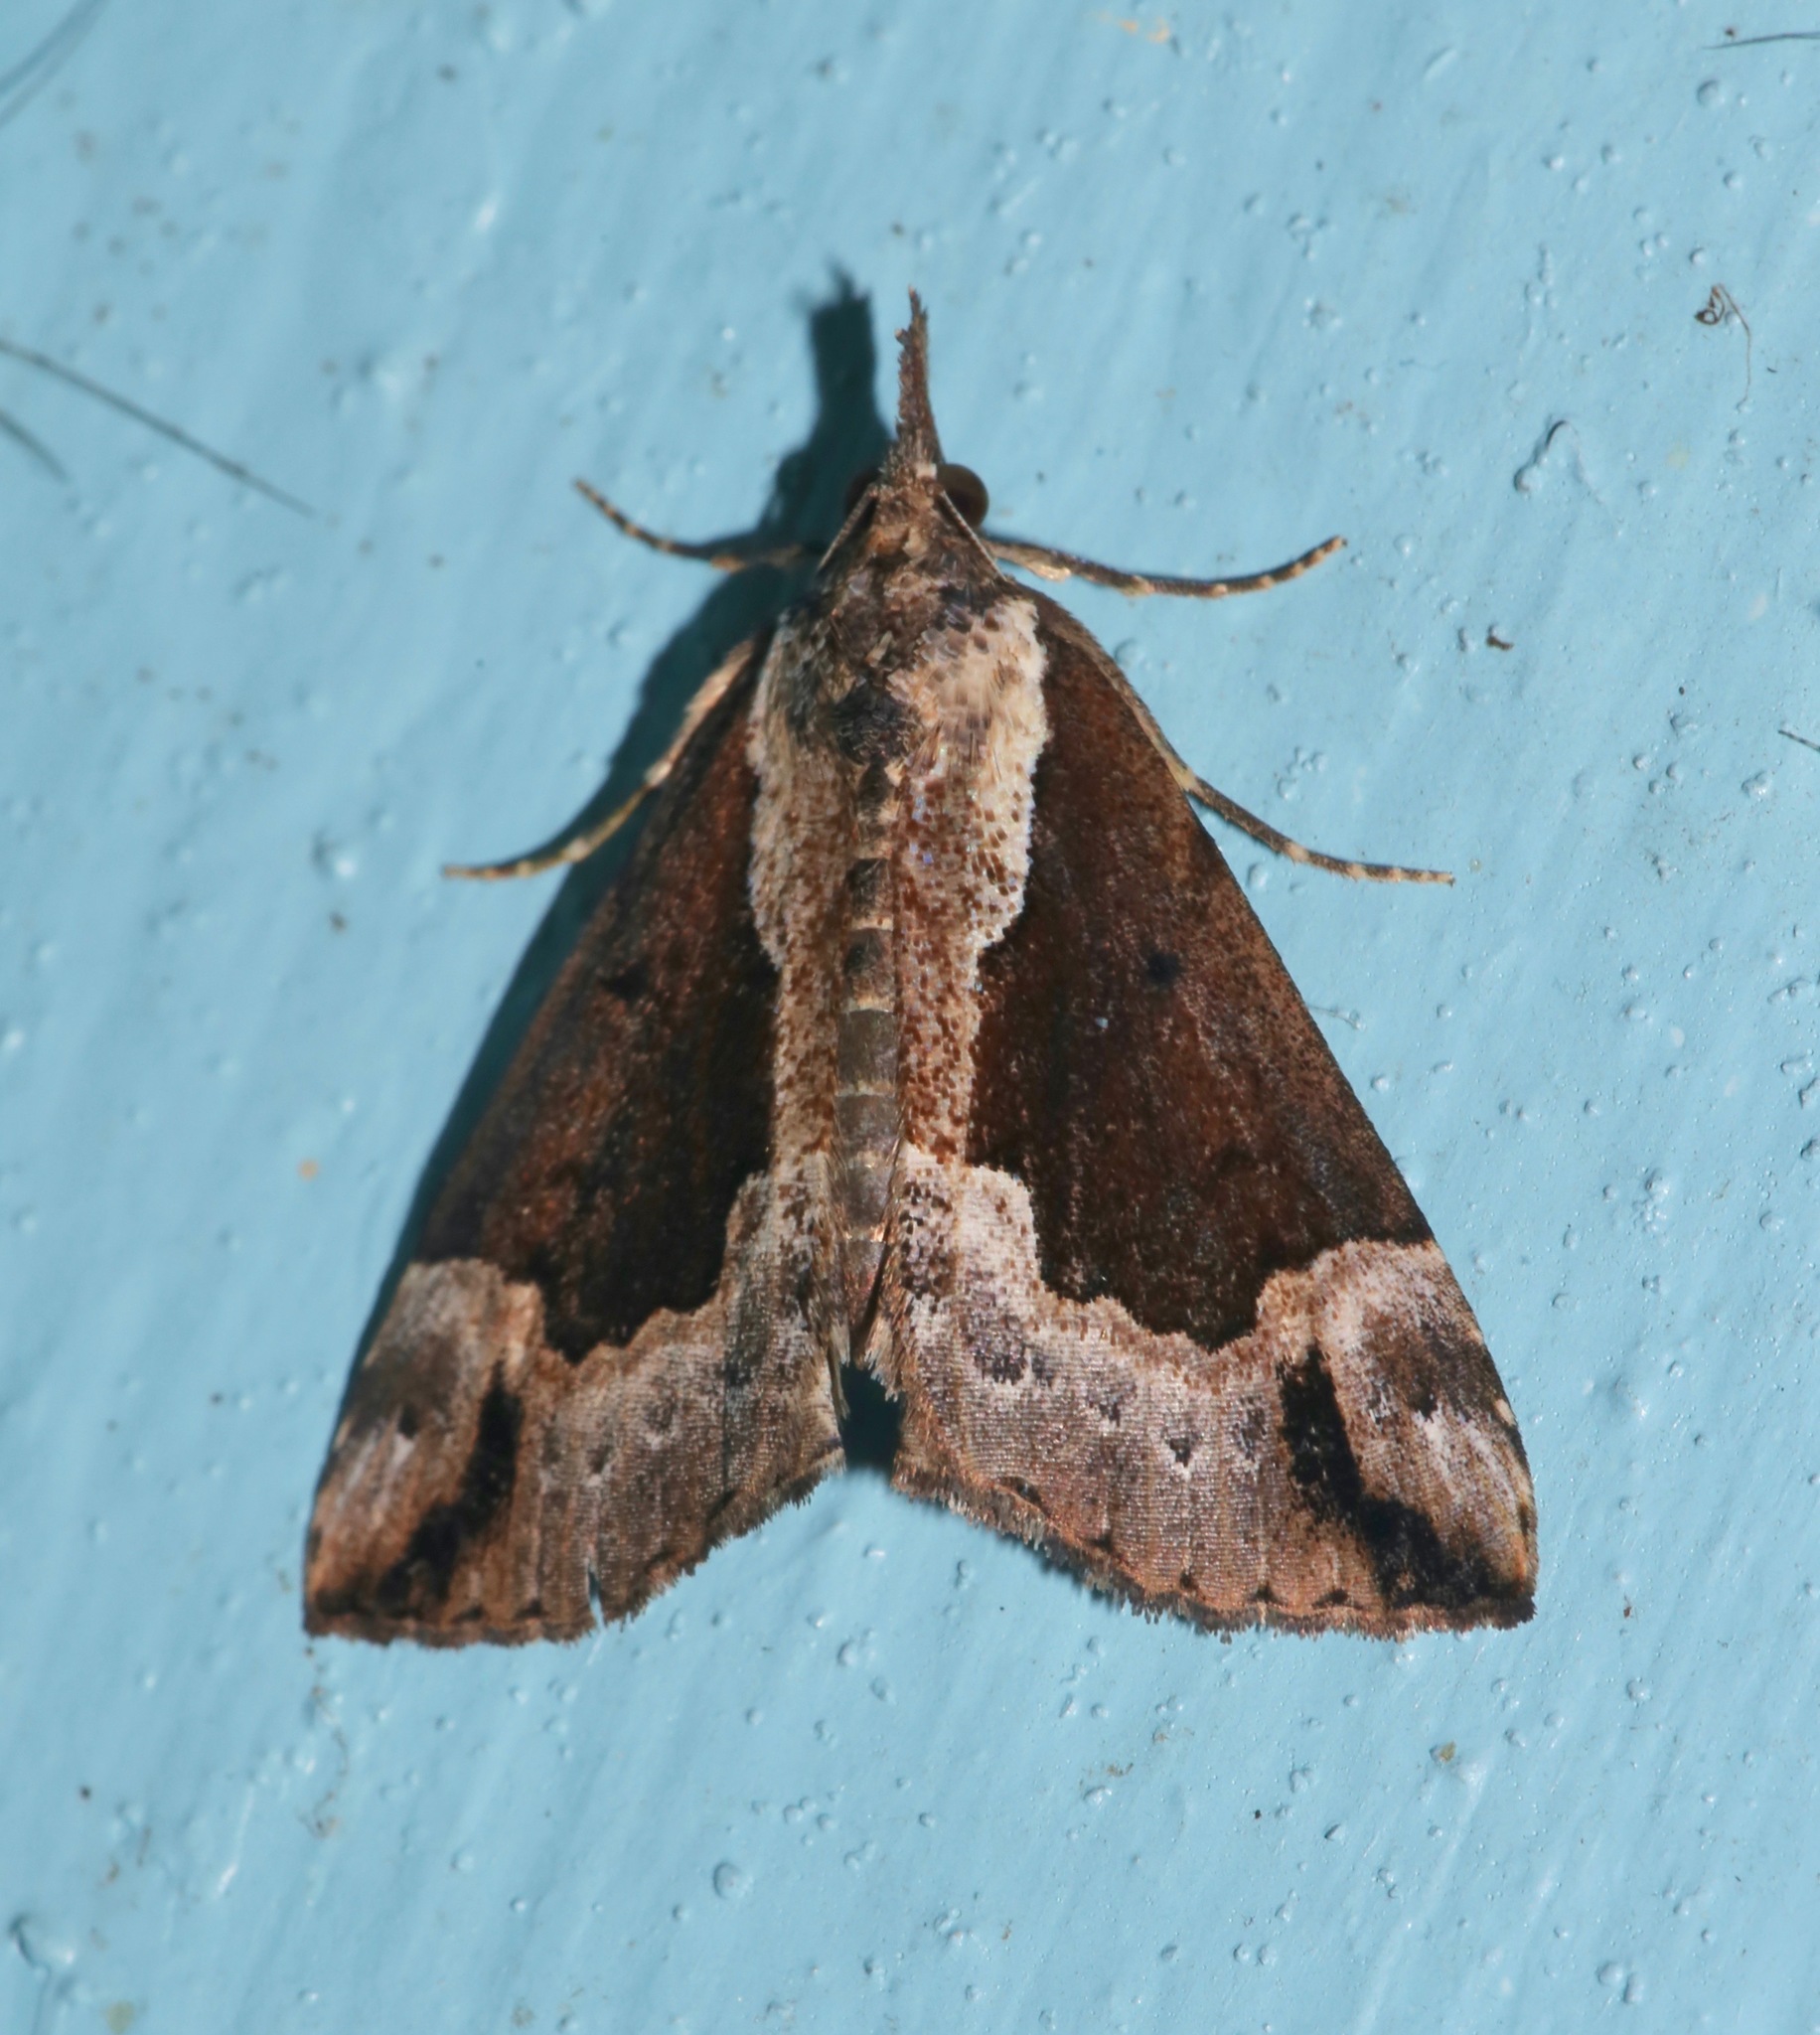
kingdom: Animalia
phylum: Arthropoda
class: Insecta
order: Lepidoptera
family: Erebidae
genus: Hypena
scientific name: Hypena baltimoralis
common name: Baltimore snout
